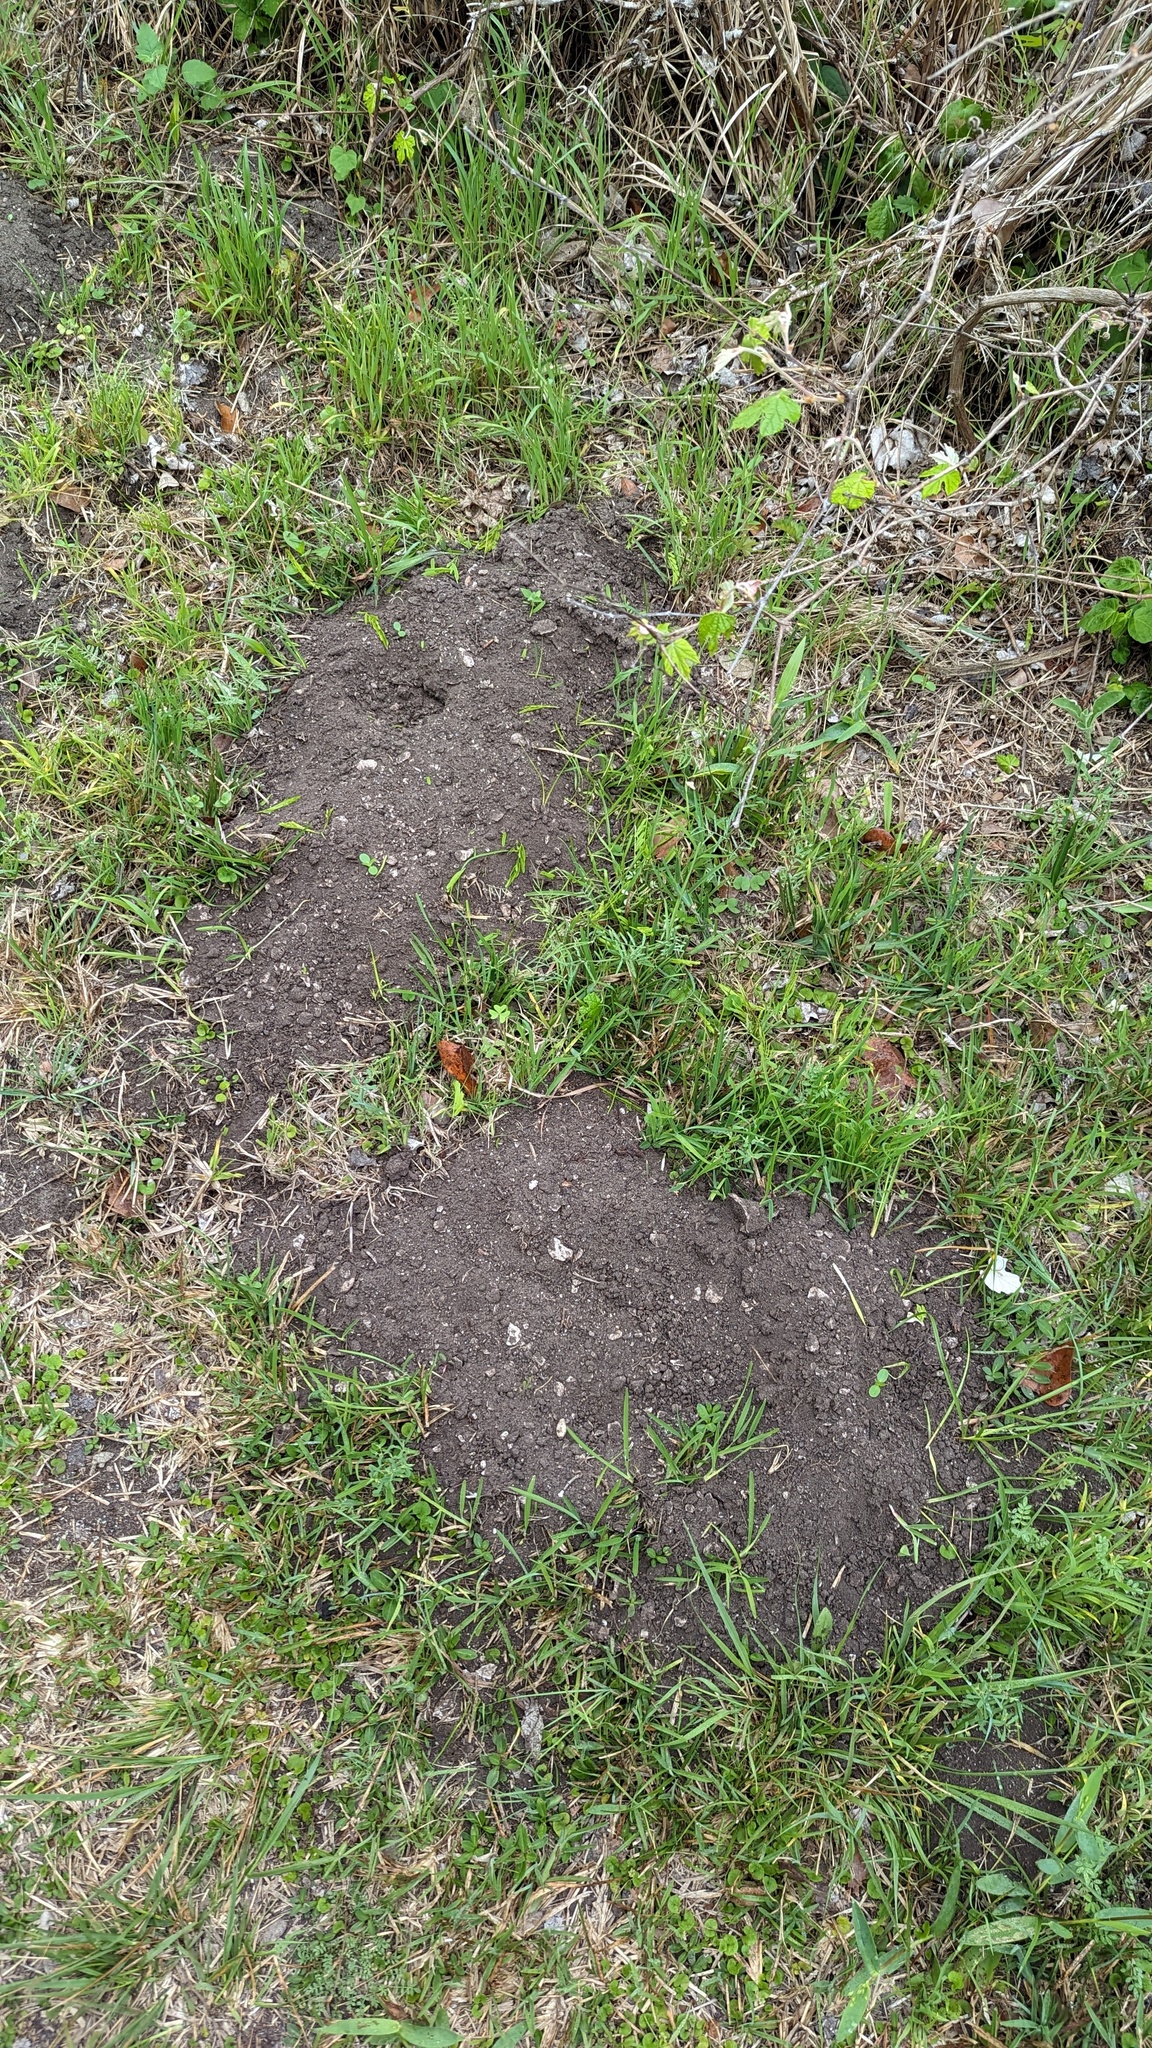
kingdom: Animalia
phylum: Chordata
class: Mammalia
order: Rodentia
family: Geomyidae
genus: Geomys
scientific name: Geomys attwateri
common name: Attwater's pocket gopher
